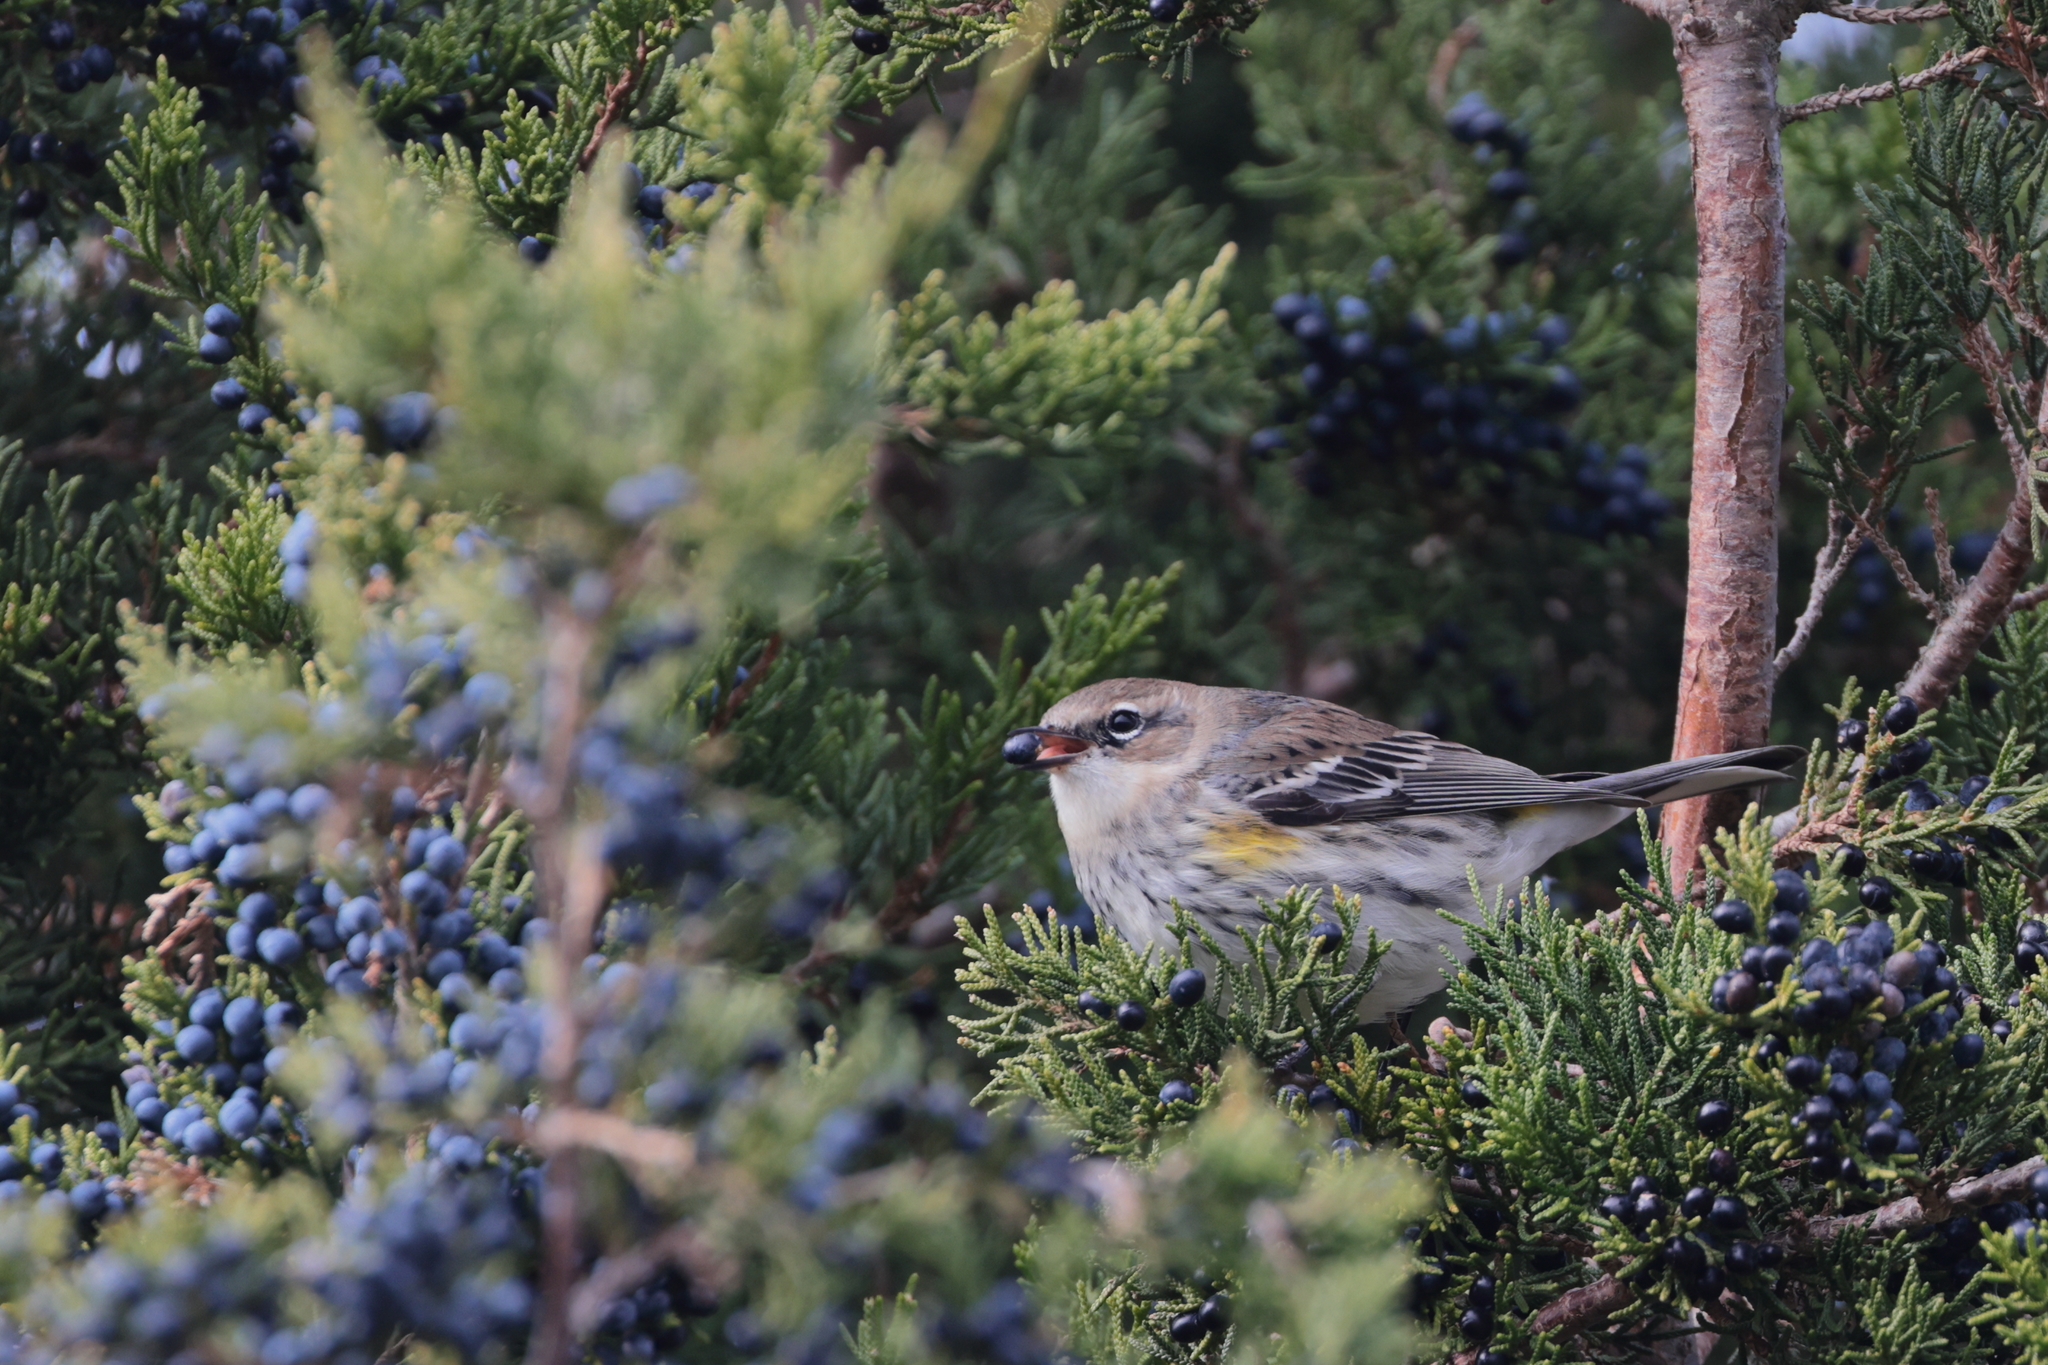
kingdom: Animalia
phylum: Chordata
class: Aves
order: Passeriformes
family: Parulidae
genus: Setophaga
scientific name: Setophaga coronata
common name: Myrtle warbler
